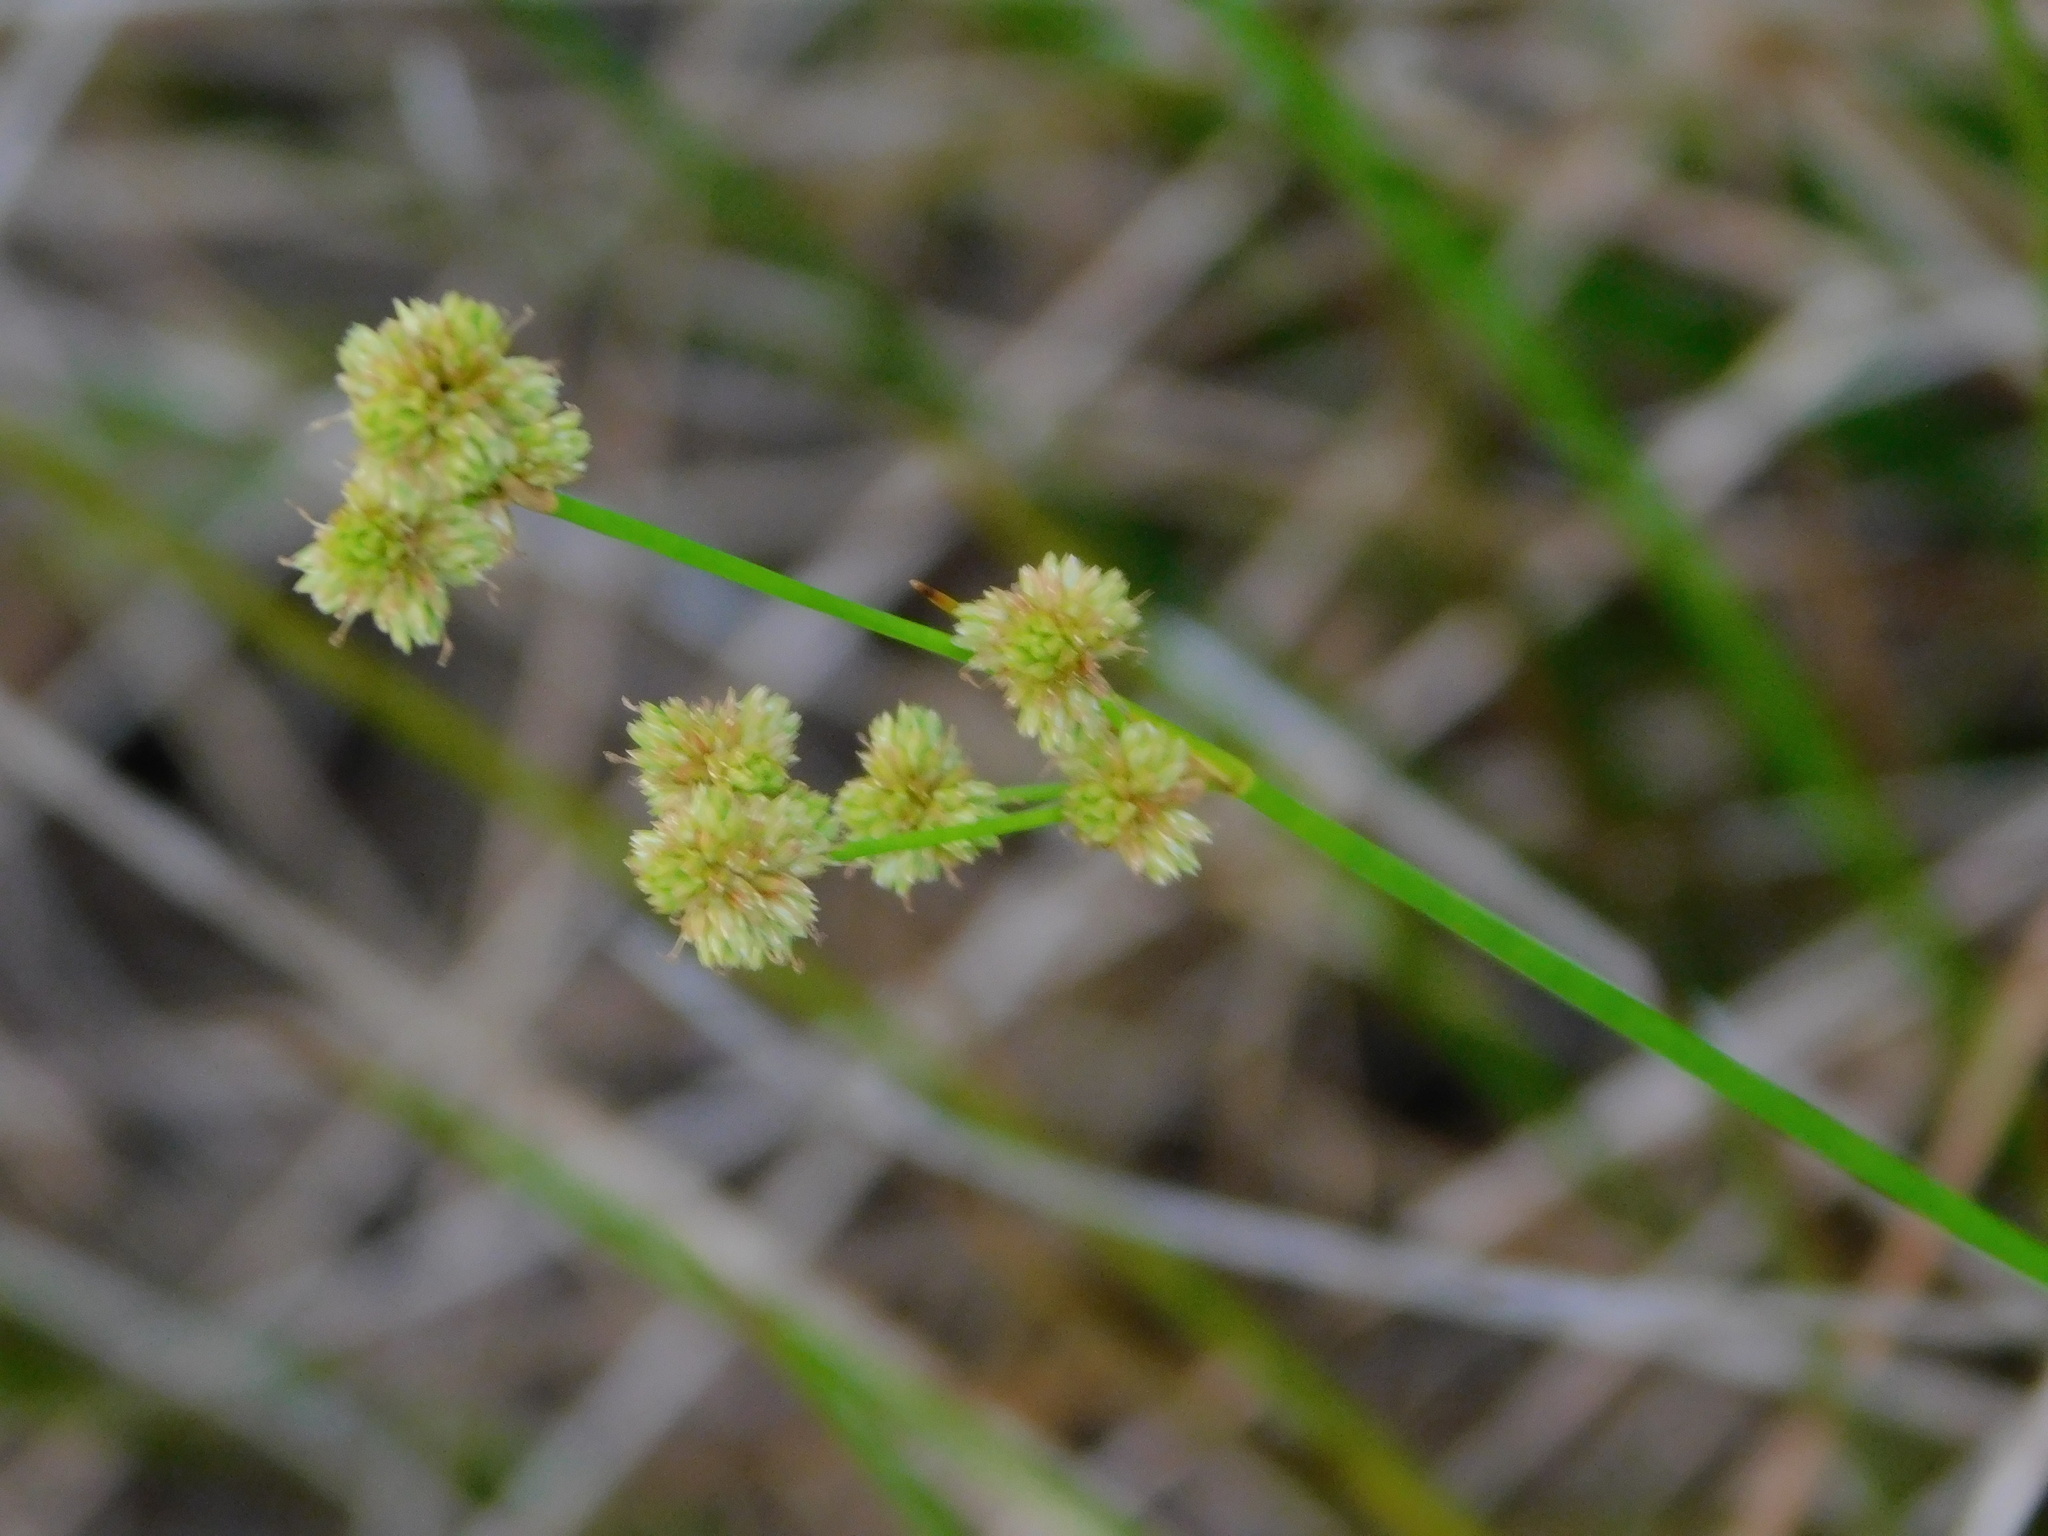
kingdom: Plantae
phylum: Tracheophyta
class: Liliopsida
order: Poales
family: Juncaceae
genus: Juncus
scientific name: Juncus scirpoides
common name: Needlepod rush
